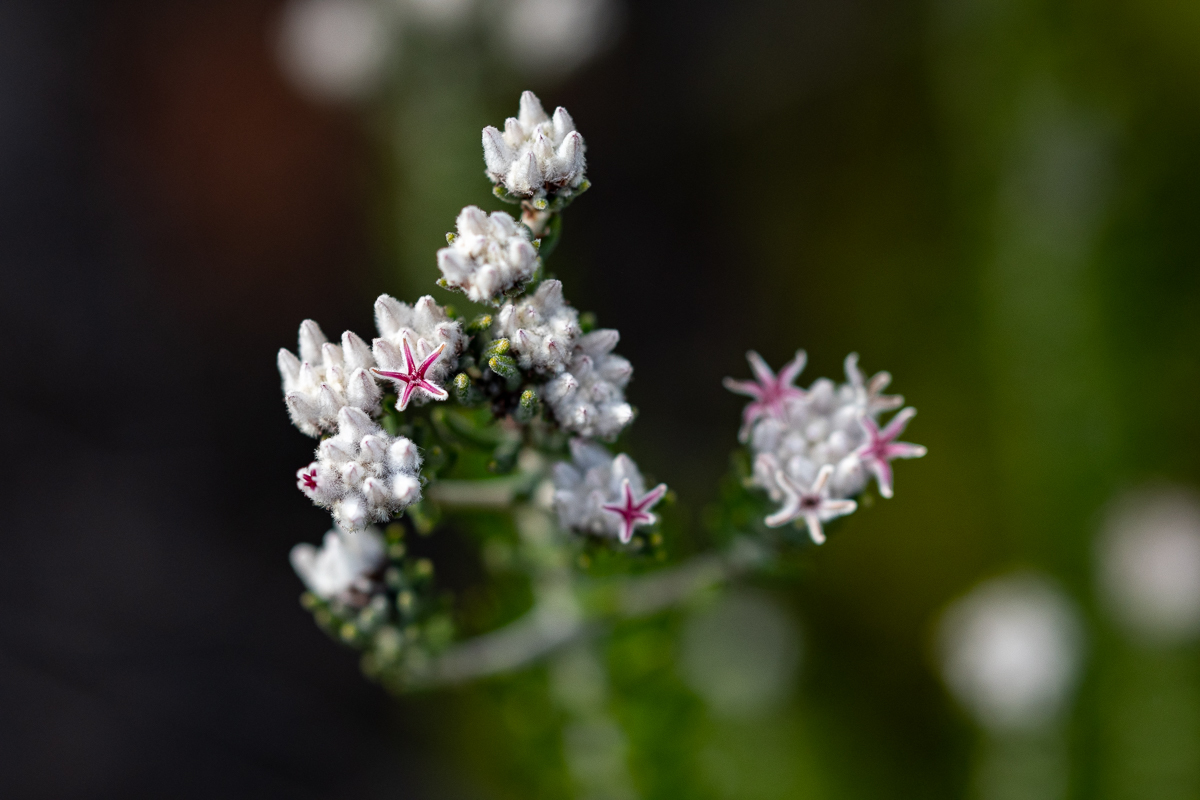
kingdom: Plantae
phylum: Tracheophyta
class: Magnoliopsida
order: Rosales
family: Rhamnaceae
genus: Trichocephalus
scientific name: Trichocephalus stipularis
